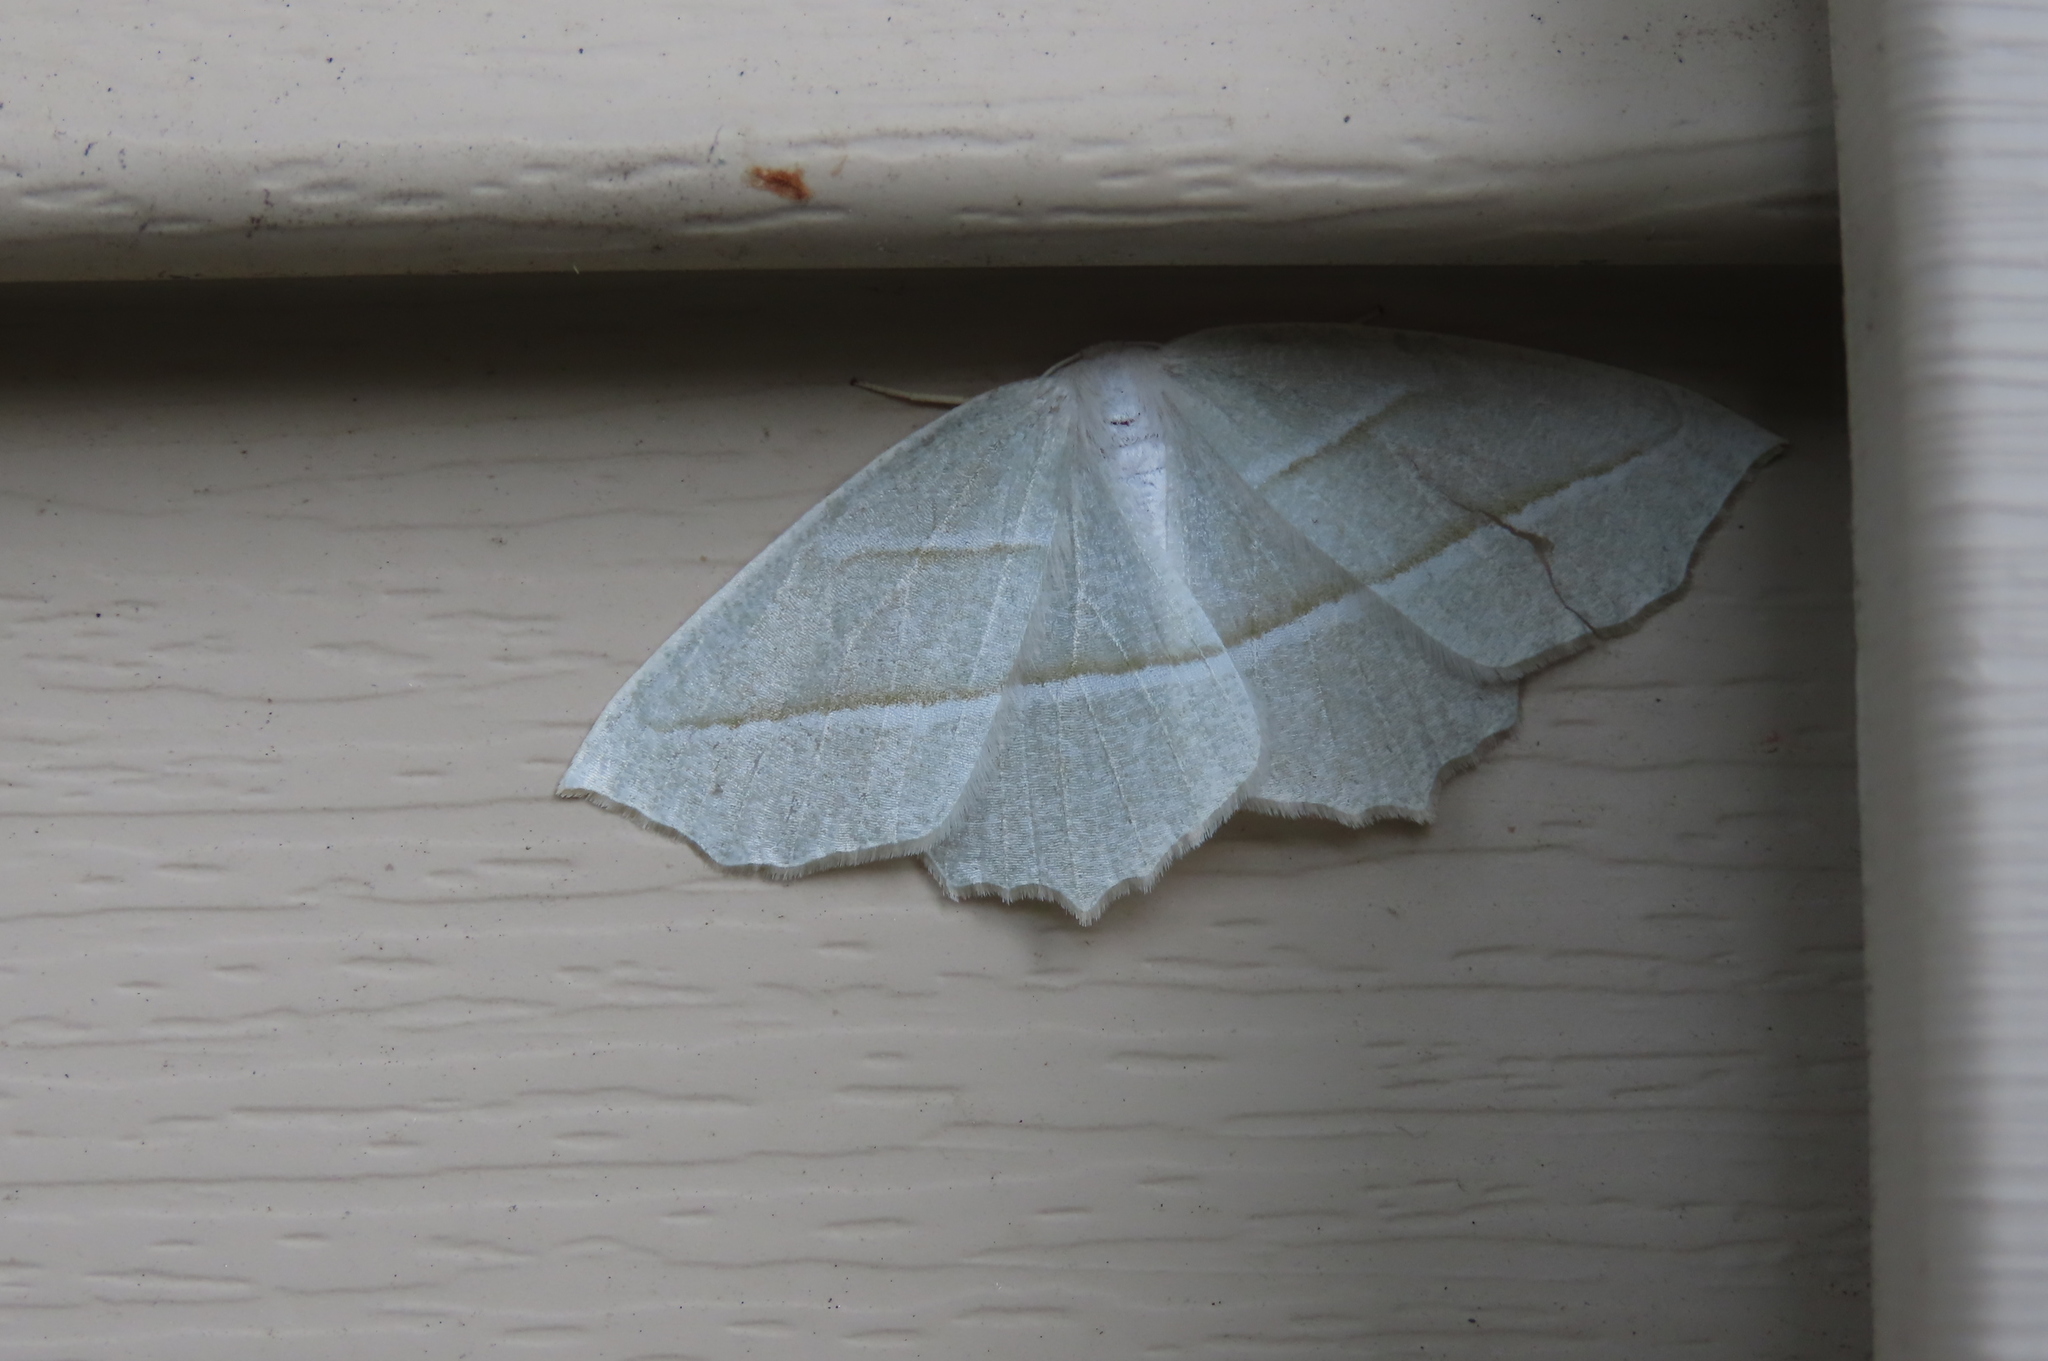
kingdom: Animalia
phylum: Arthropoda
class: Insecta
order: Lepidoptera
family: Geometridae
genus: Campaea
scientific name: Campaea perlata
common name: Fringed looper
